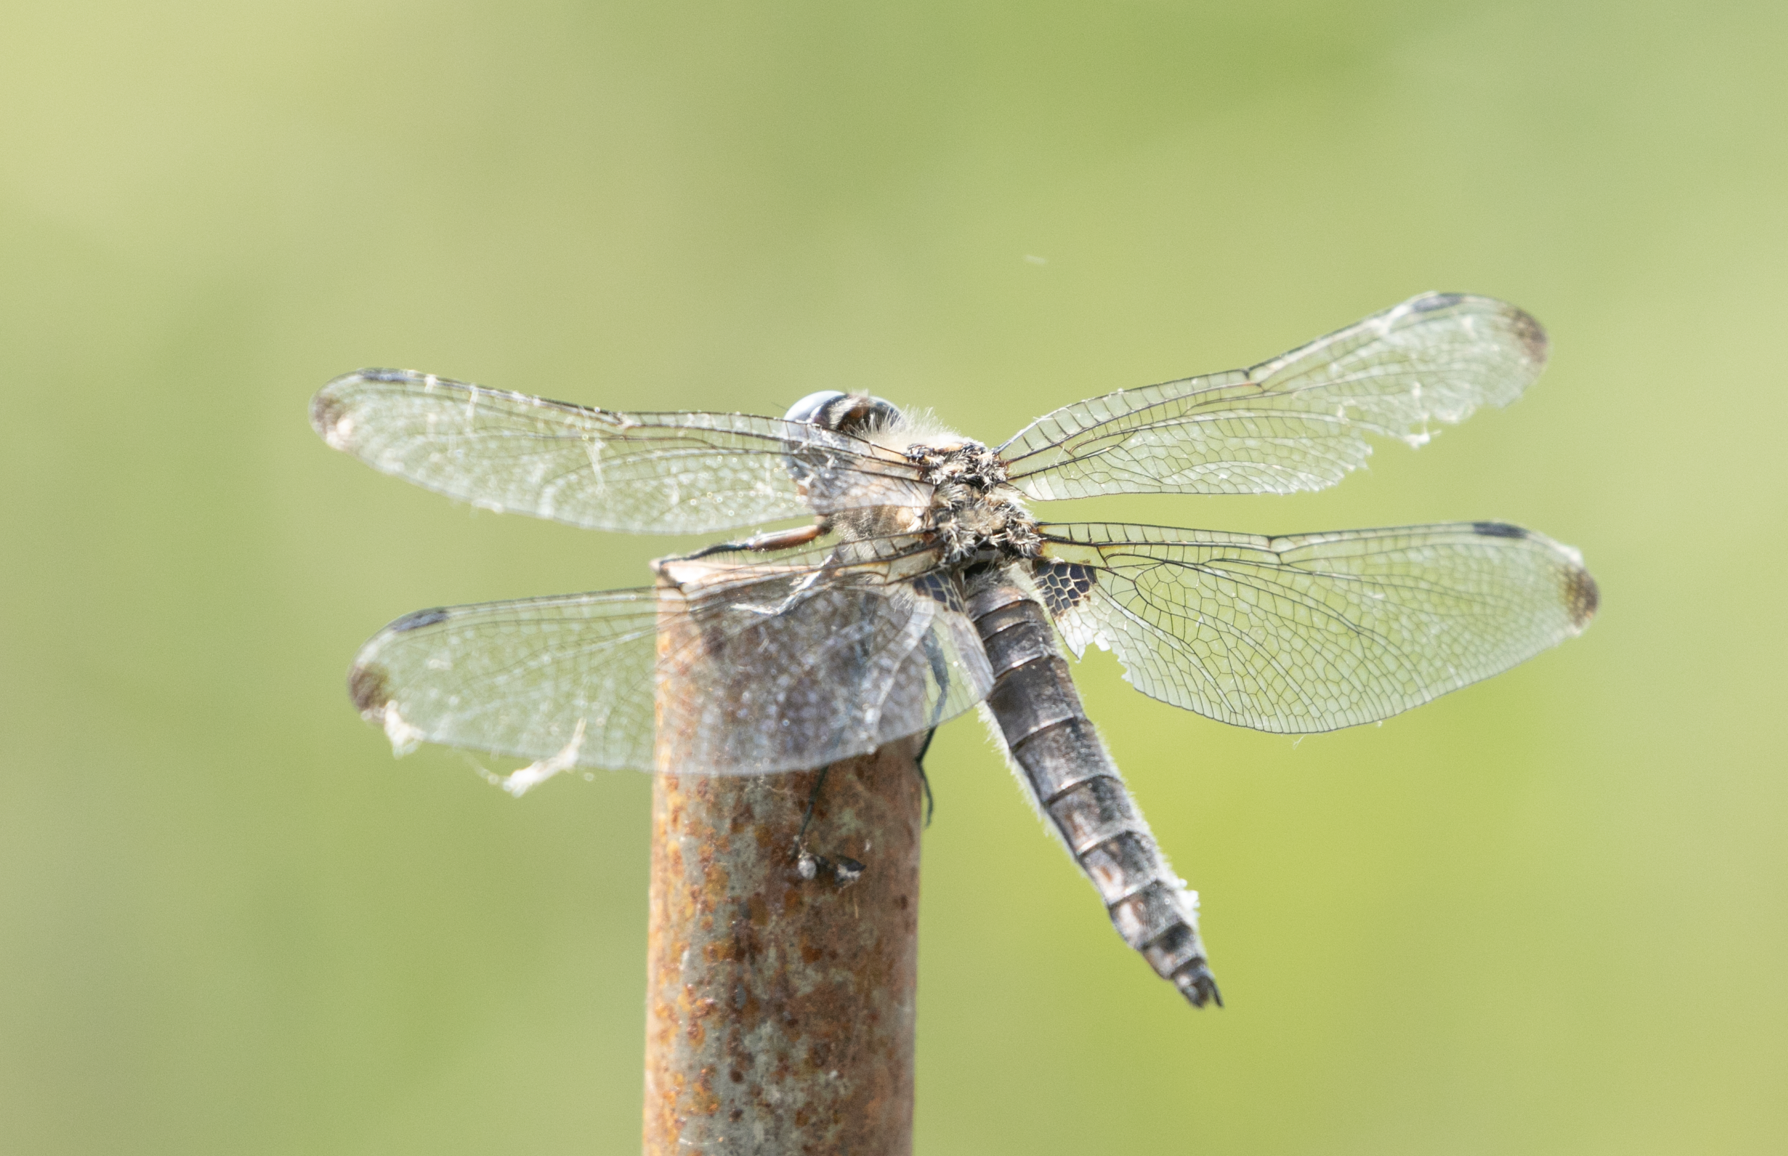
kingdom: Animalia
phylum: Arthropoda
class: Insecta
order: Odonata
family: Libellulidae
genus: Libellula
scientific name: Libellula fulva
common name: Blue chaser
